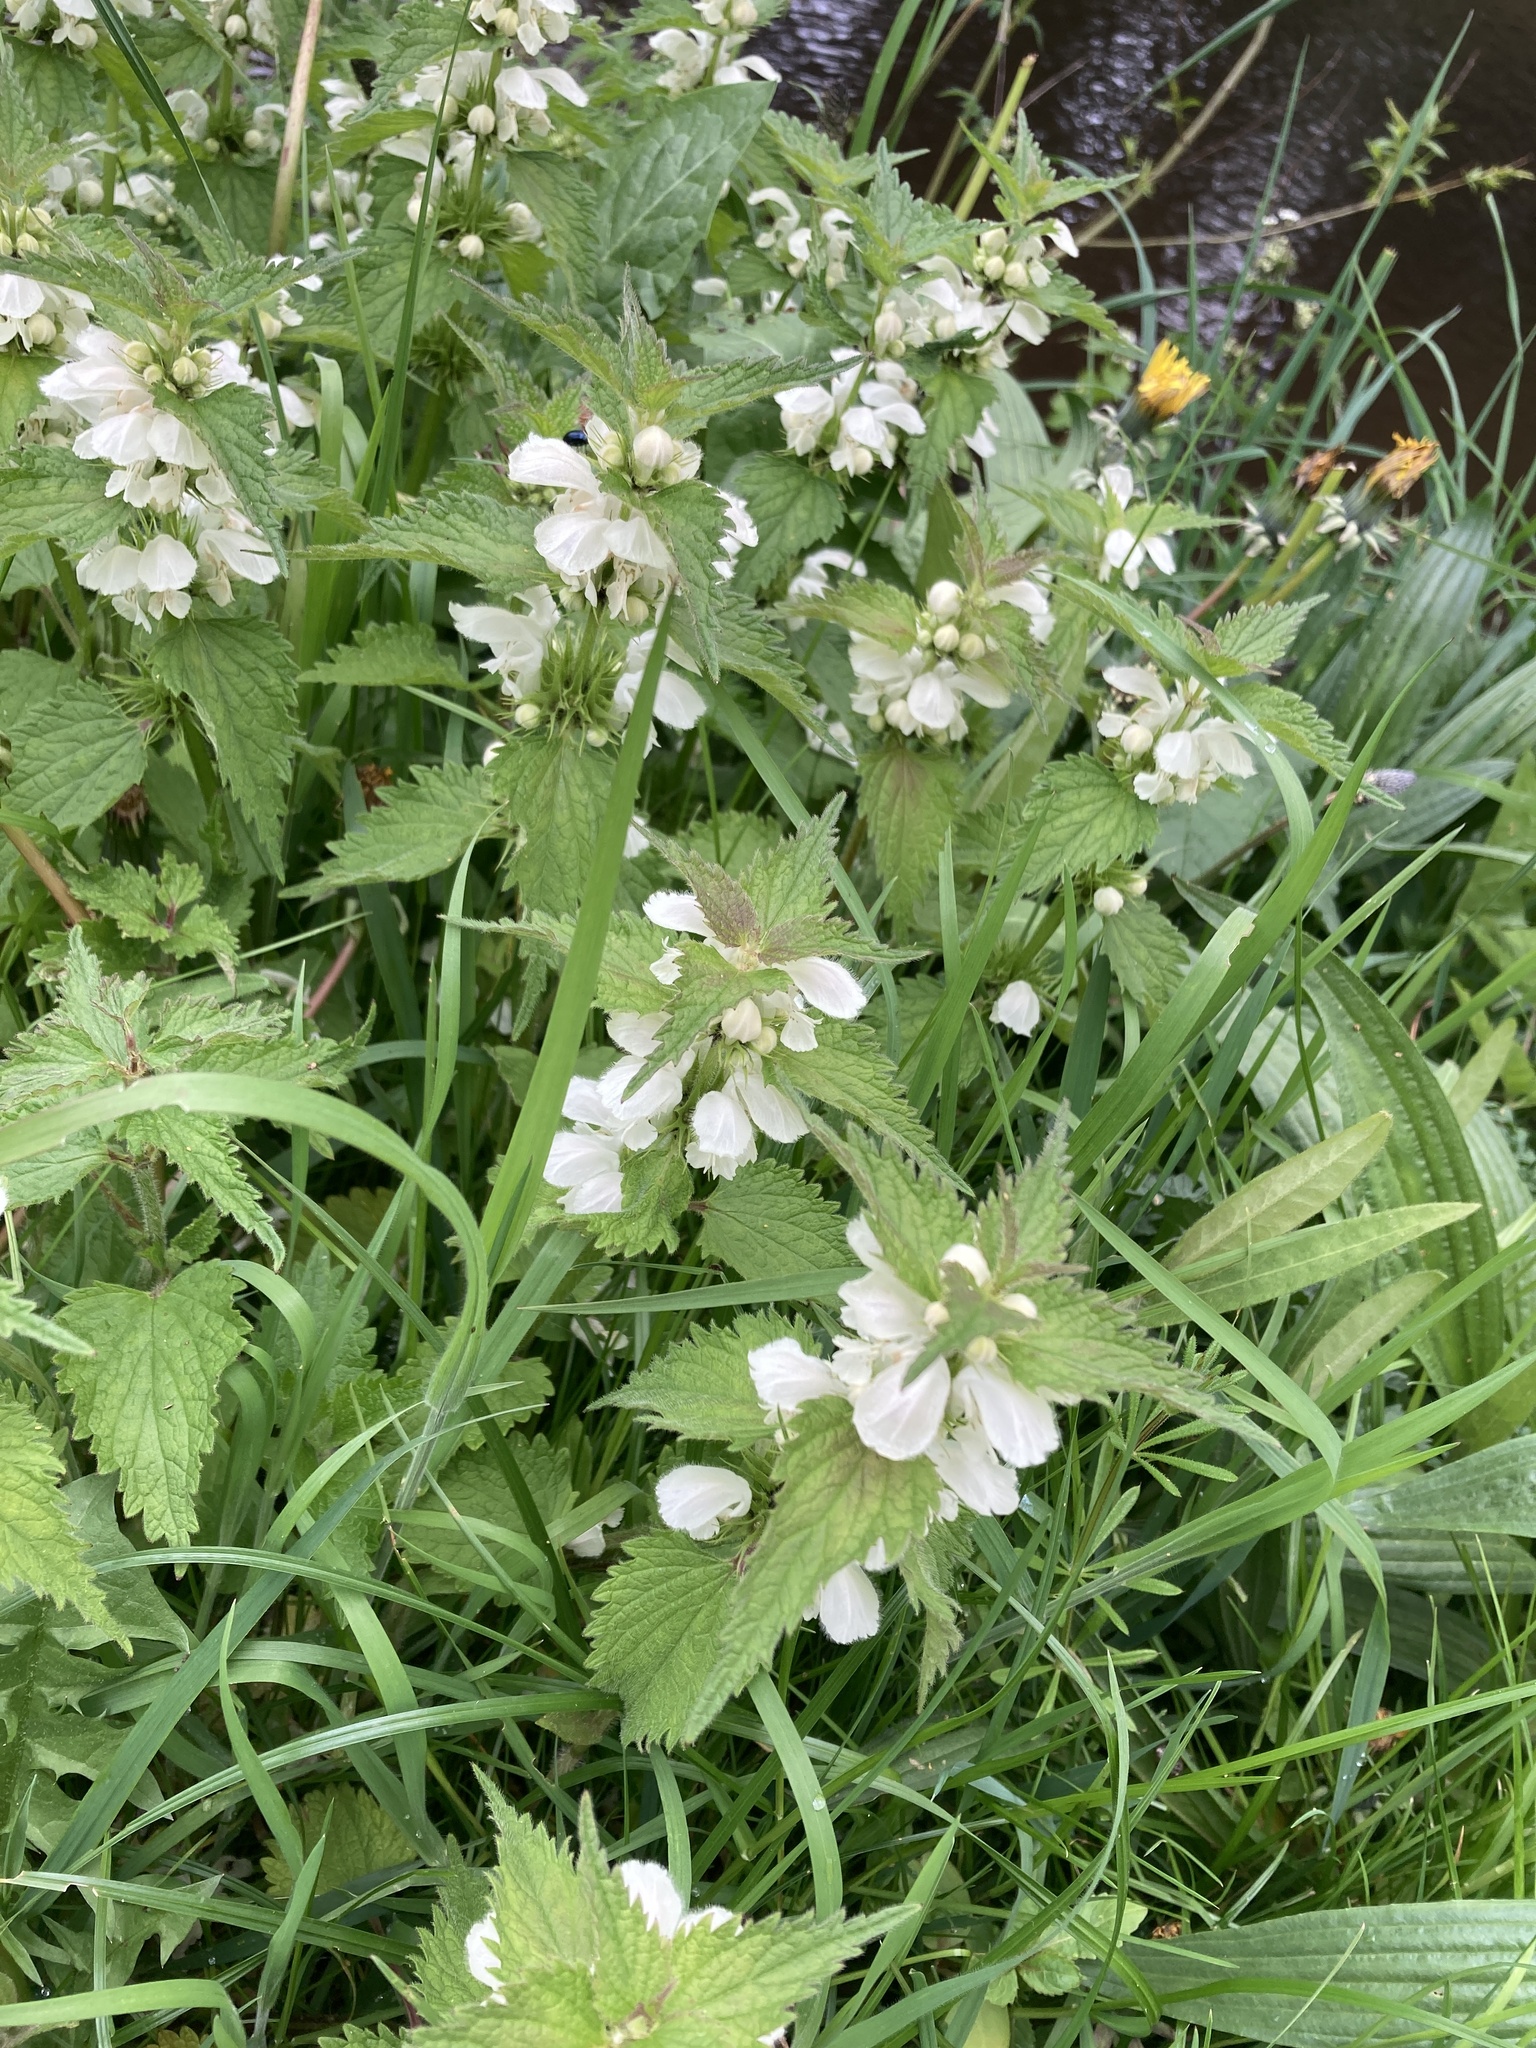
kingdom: Plantae
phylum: Tracheophyta
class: Magnoliopsida
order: Lamiales
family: Lamiaceae
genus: Lamium
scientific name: Lamium album
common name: White dead-nettle
